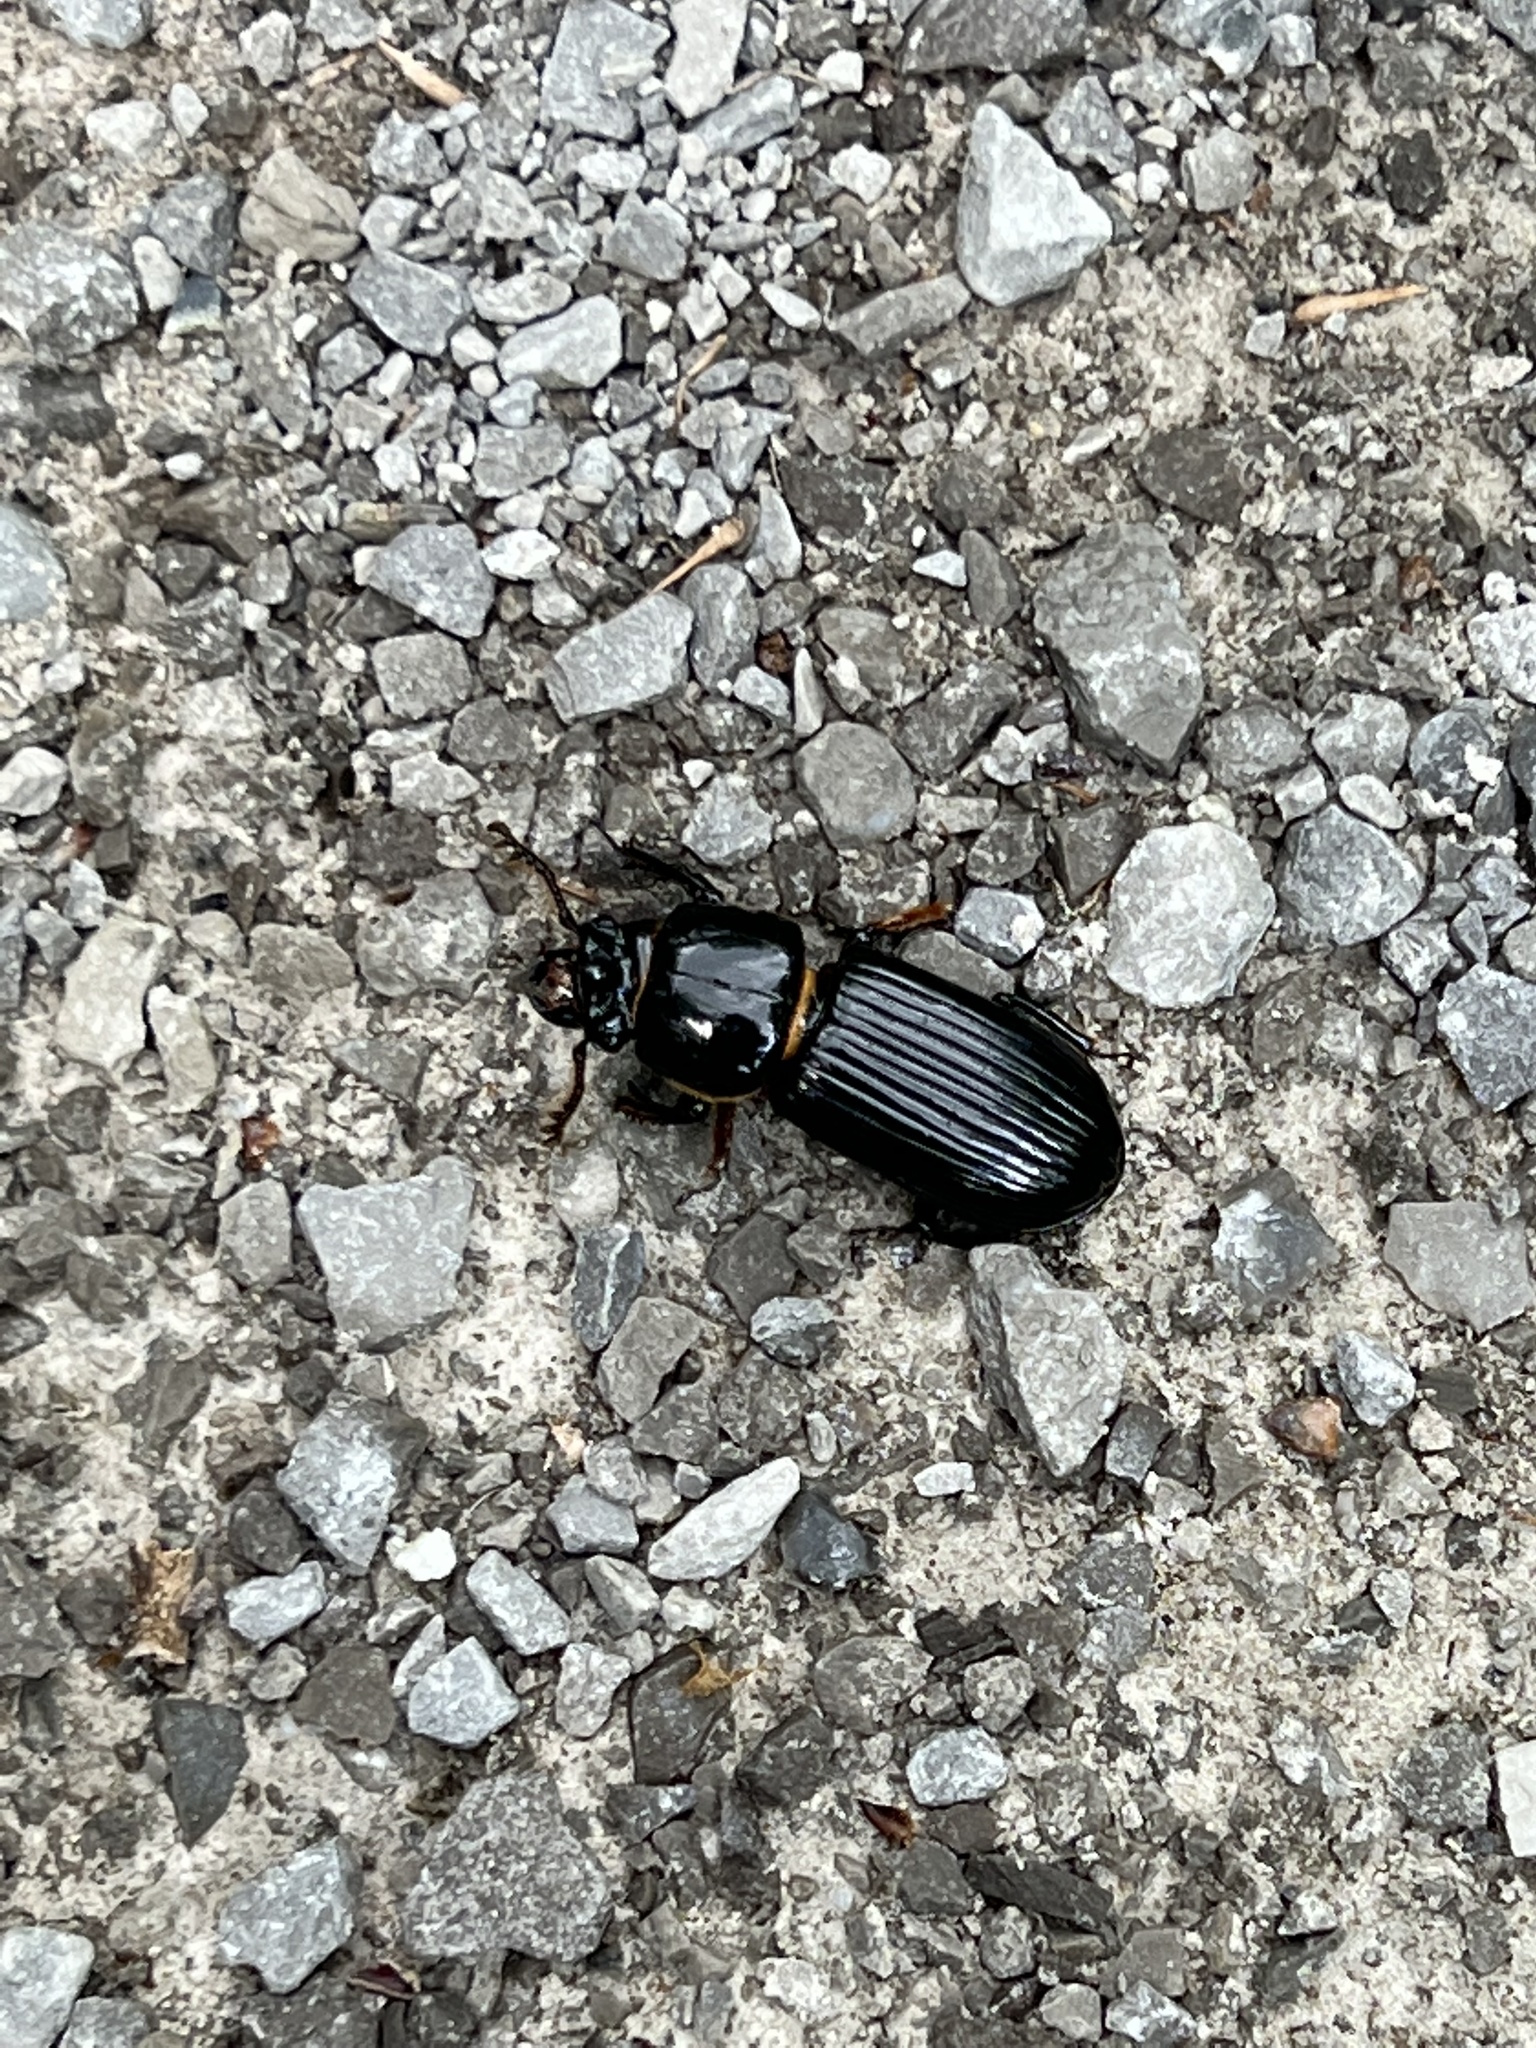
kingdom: Animalia
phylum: Arthropoda
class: Insecta
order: Coleoptera
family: Passalidae
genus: Odontotaenius
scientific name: Odontotaenius disjunctus
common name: Patent leather beetle
